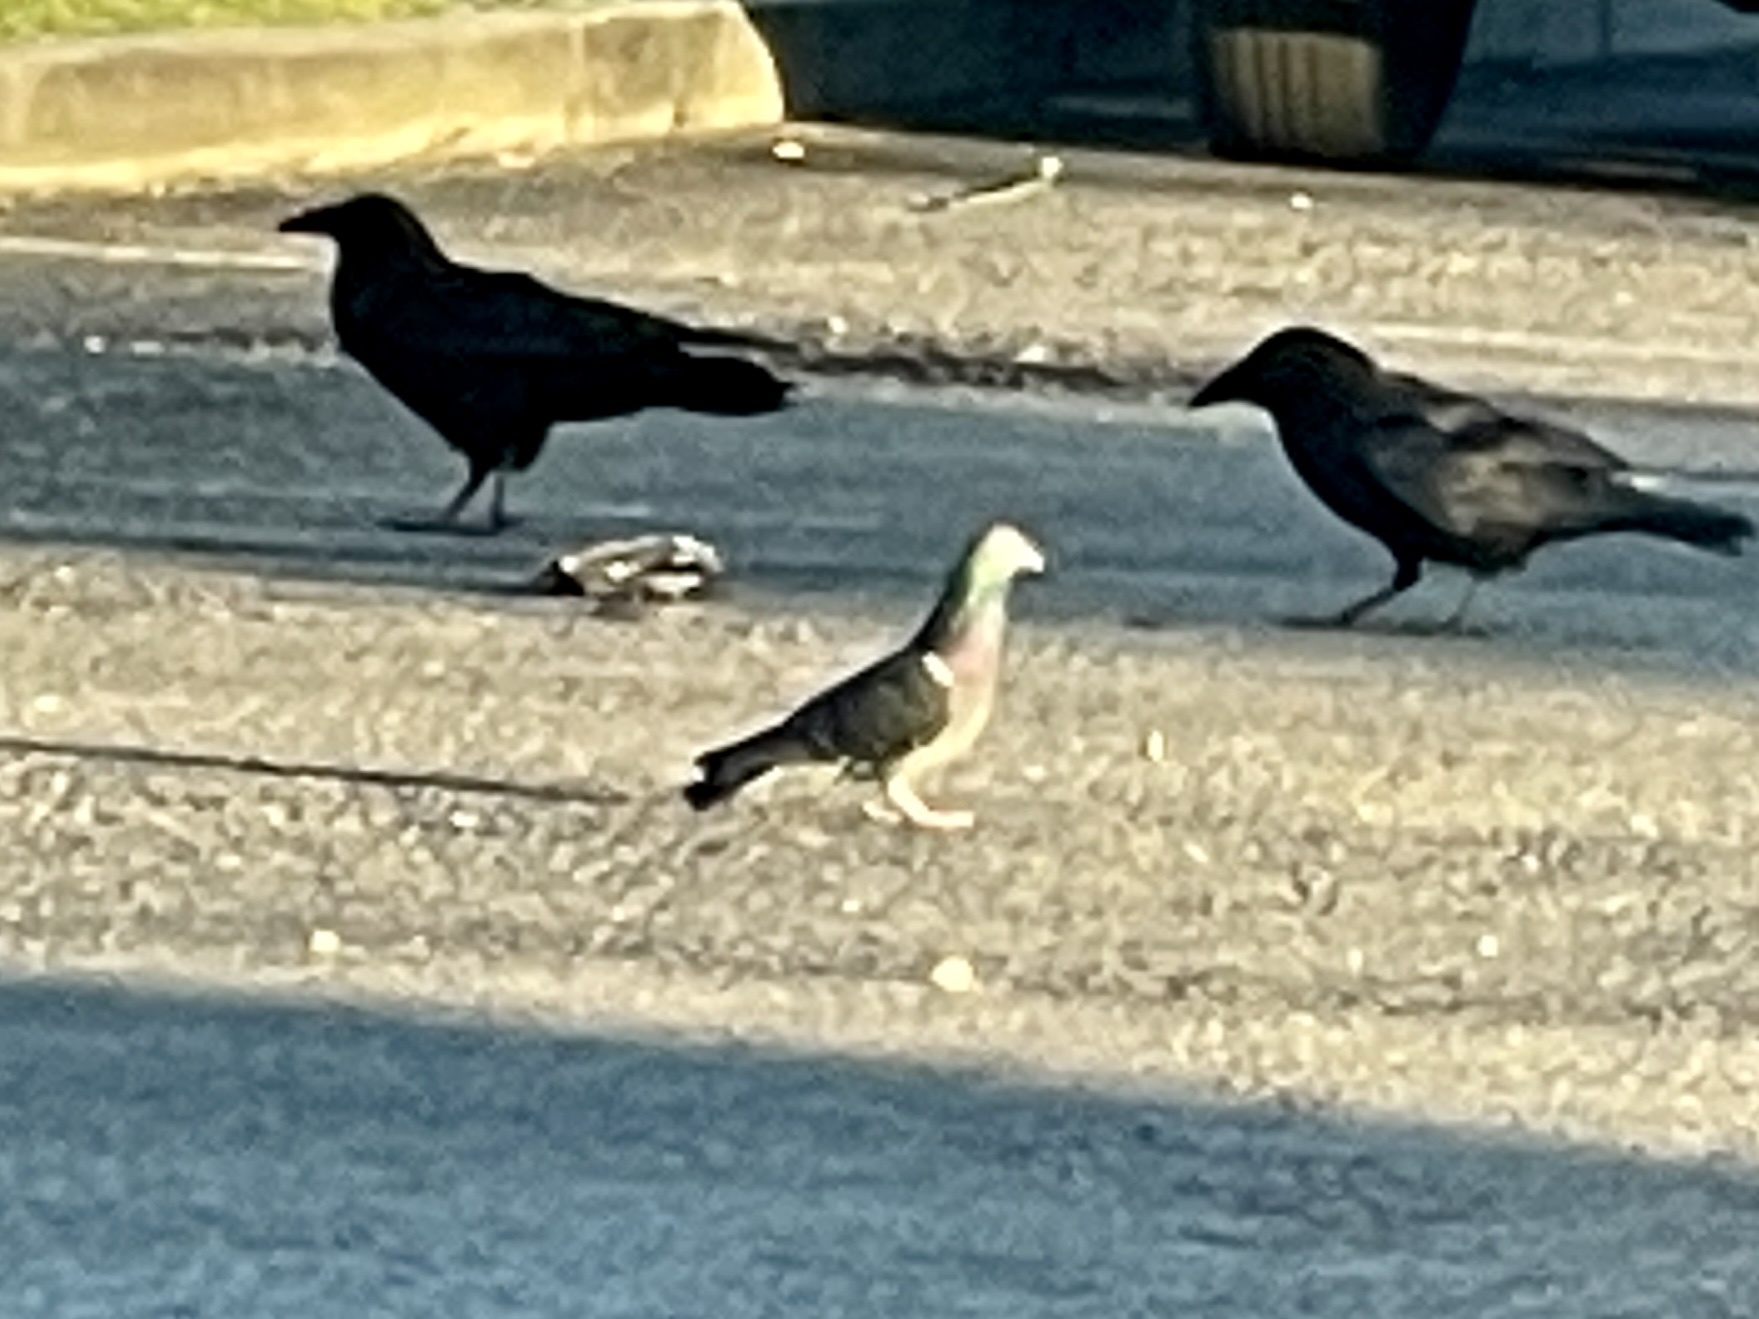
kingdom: Animalia
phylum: Chordata
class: Aves
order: Columbiformes
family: Columbidae
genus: Columba
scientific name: Columba livia
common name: Rock pigeon
